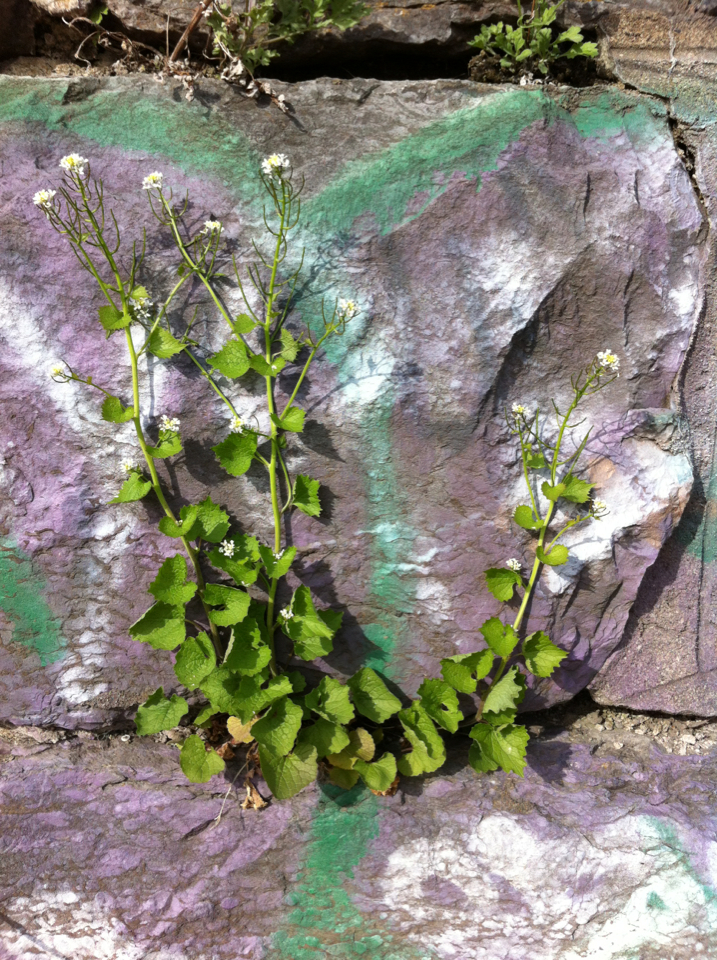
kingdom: Plantae
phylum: Tracheophyta
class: Magnoliopsida
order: Brassicales
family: Brassicaceae
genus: Alliaria
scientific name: Alliaria petiolata
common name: Garlic mustard
